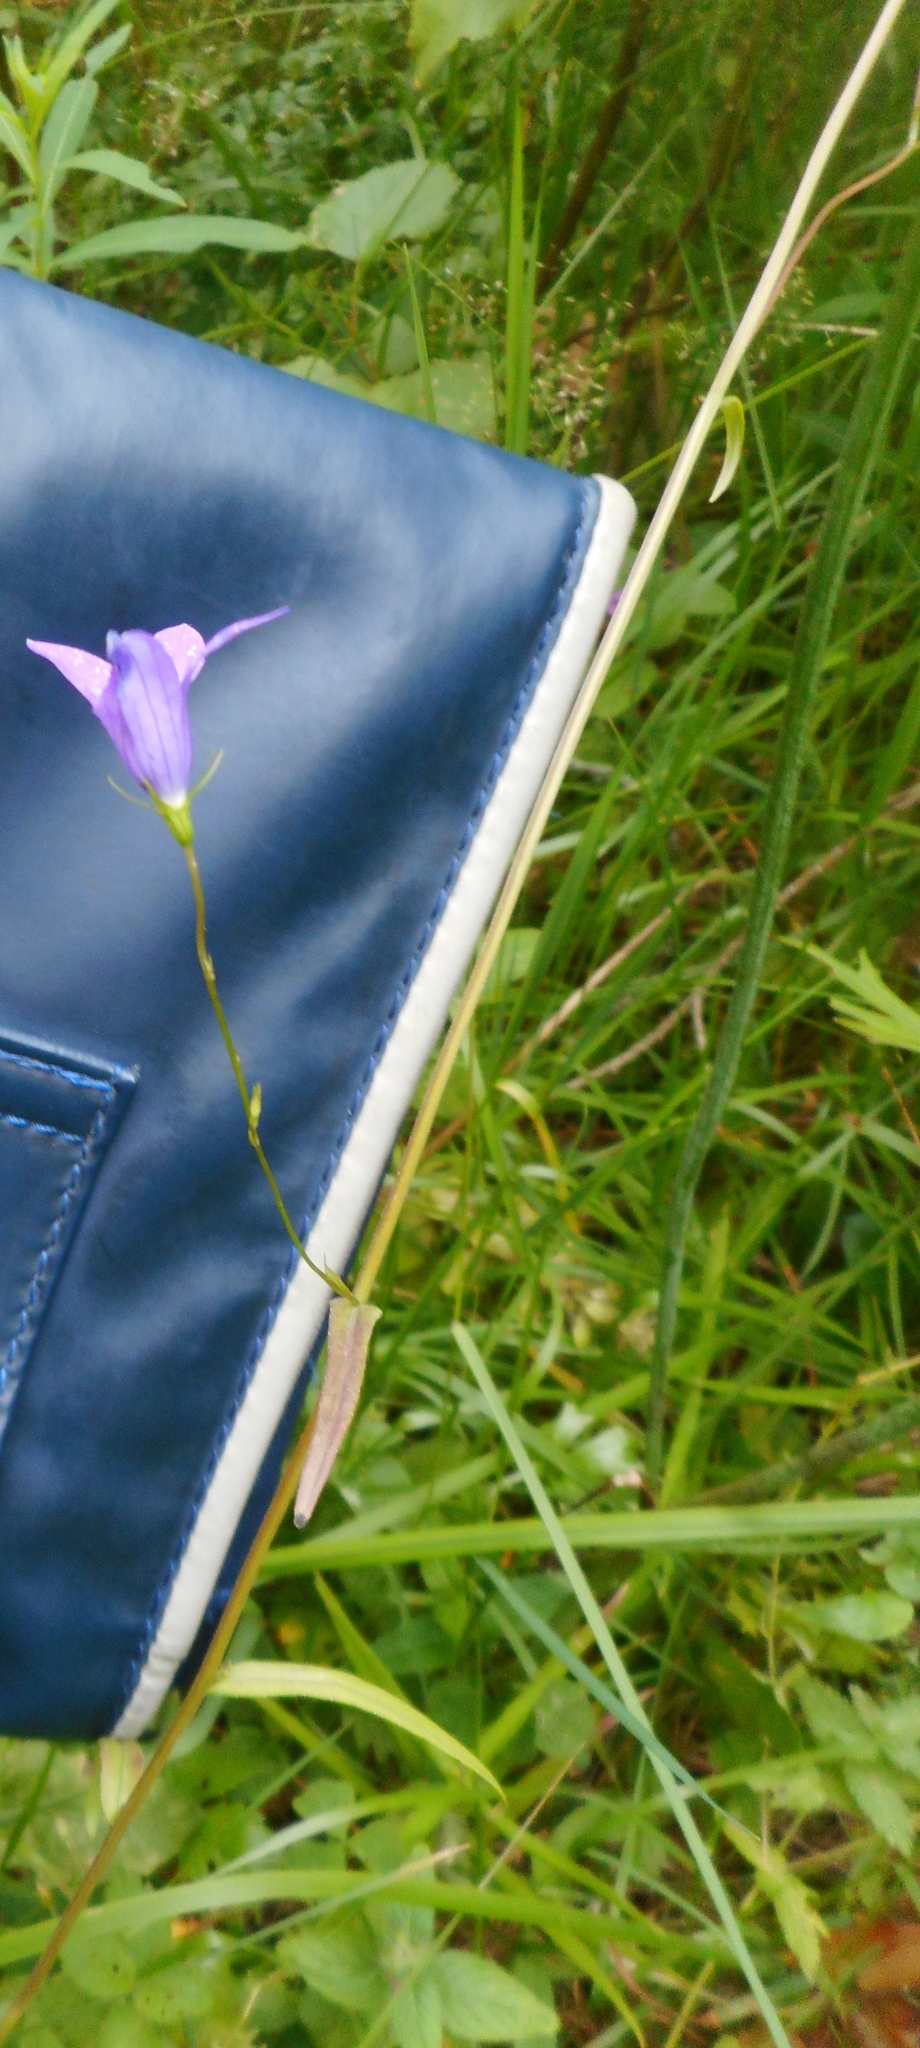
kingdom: Plantae
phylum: Tracheophyta
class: Magnoliopsida
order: Asterales
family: Campanulaceae
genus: Campanula
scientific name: Campanula patula
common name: Spreading bellflower
